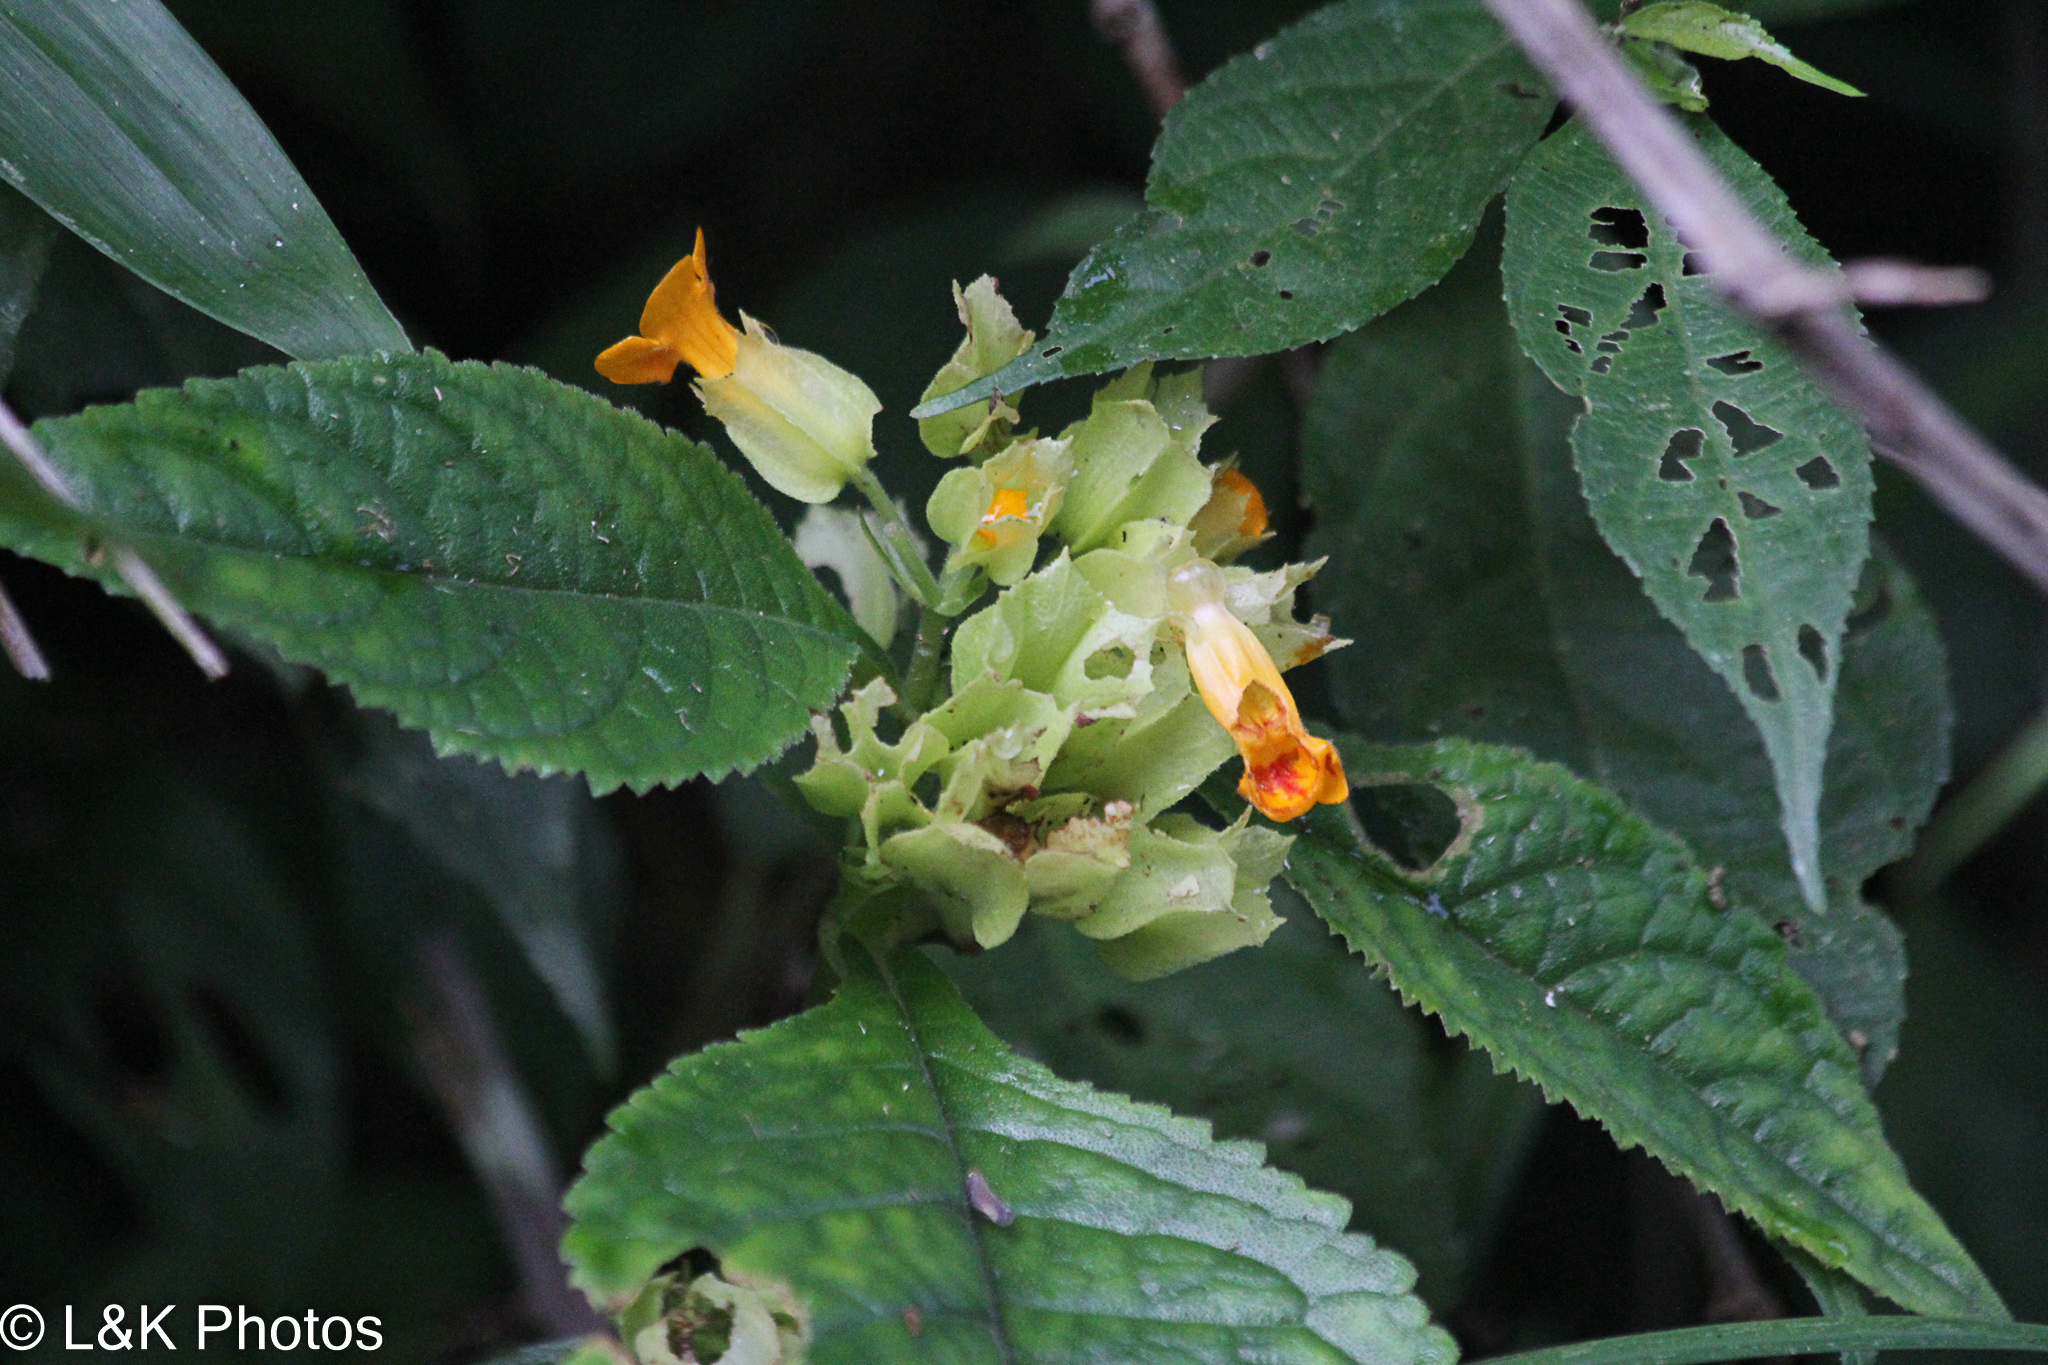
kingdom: Plantae
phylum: Tracheophyta
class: Magnoliopsida
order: Lamiales
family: Gesneriaceae
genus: Chrysothemis
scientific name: Chrysothemis friedrichsthaliana
